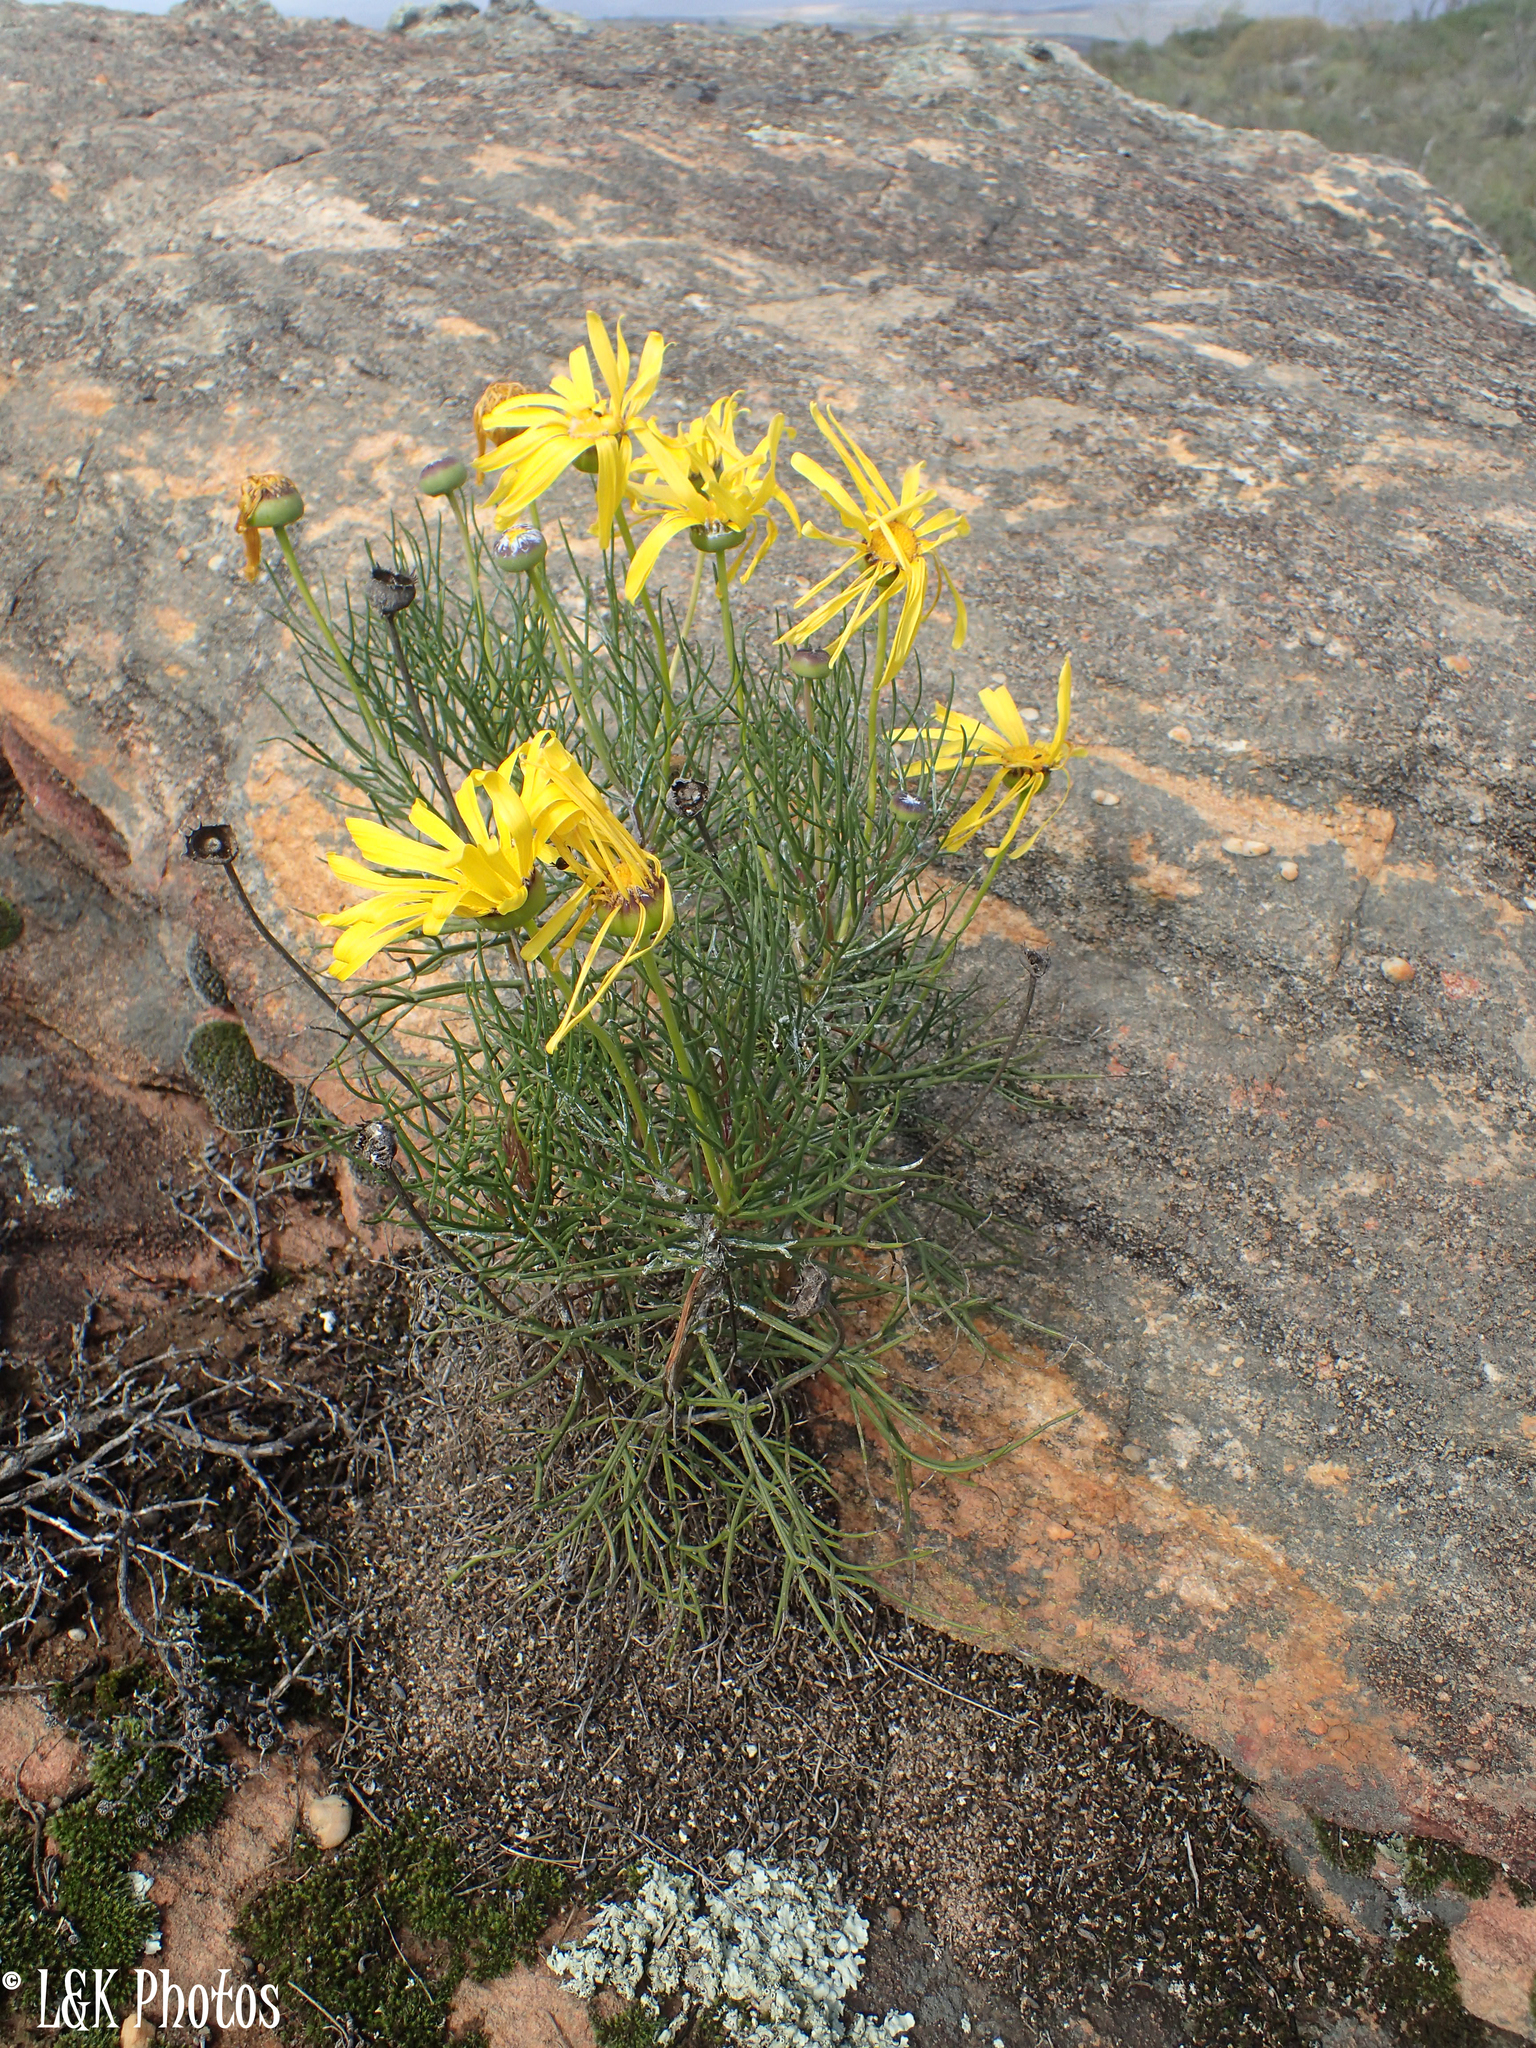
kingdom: Plantae
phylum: Tracheophyta
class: Magnoliopsida
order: Asterales
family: Asteraceae
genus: Euryops
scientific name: Euryops speciosissimus
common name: Clanwilliam daisy
